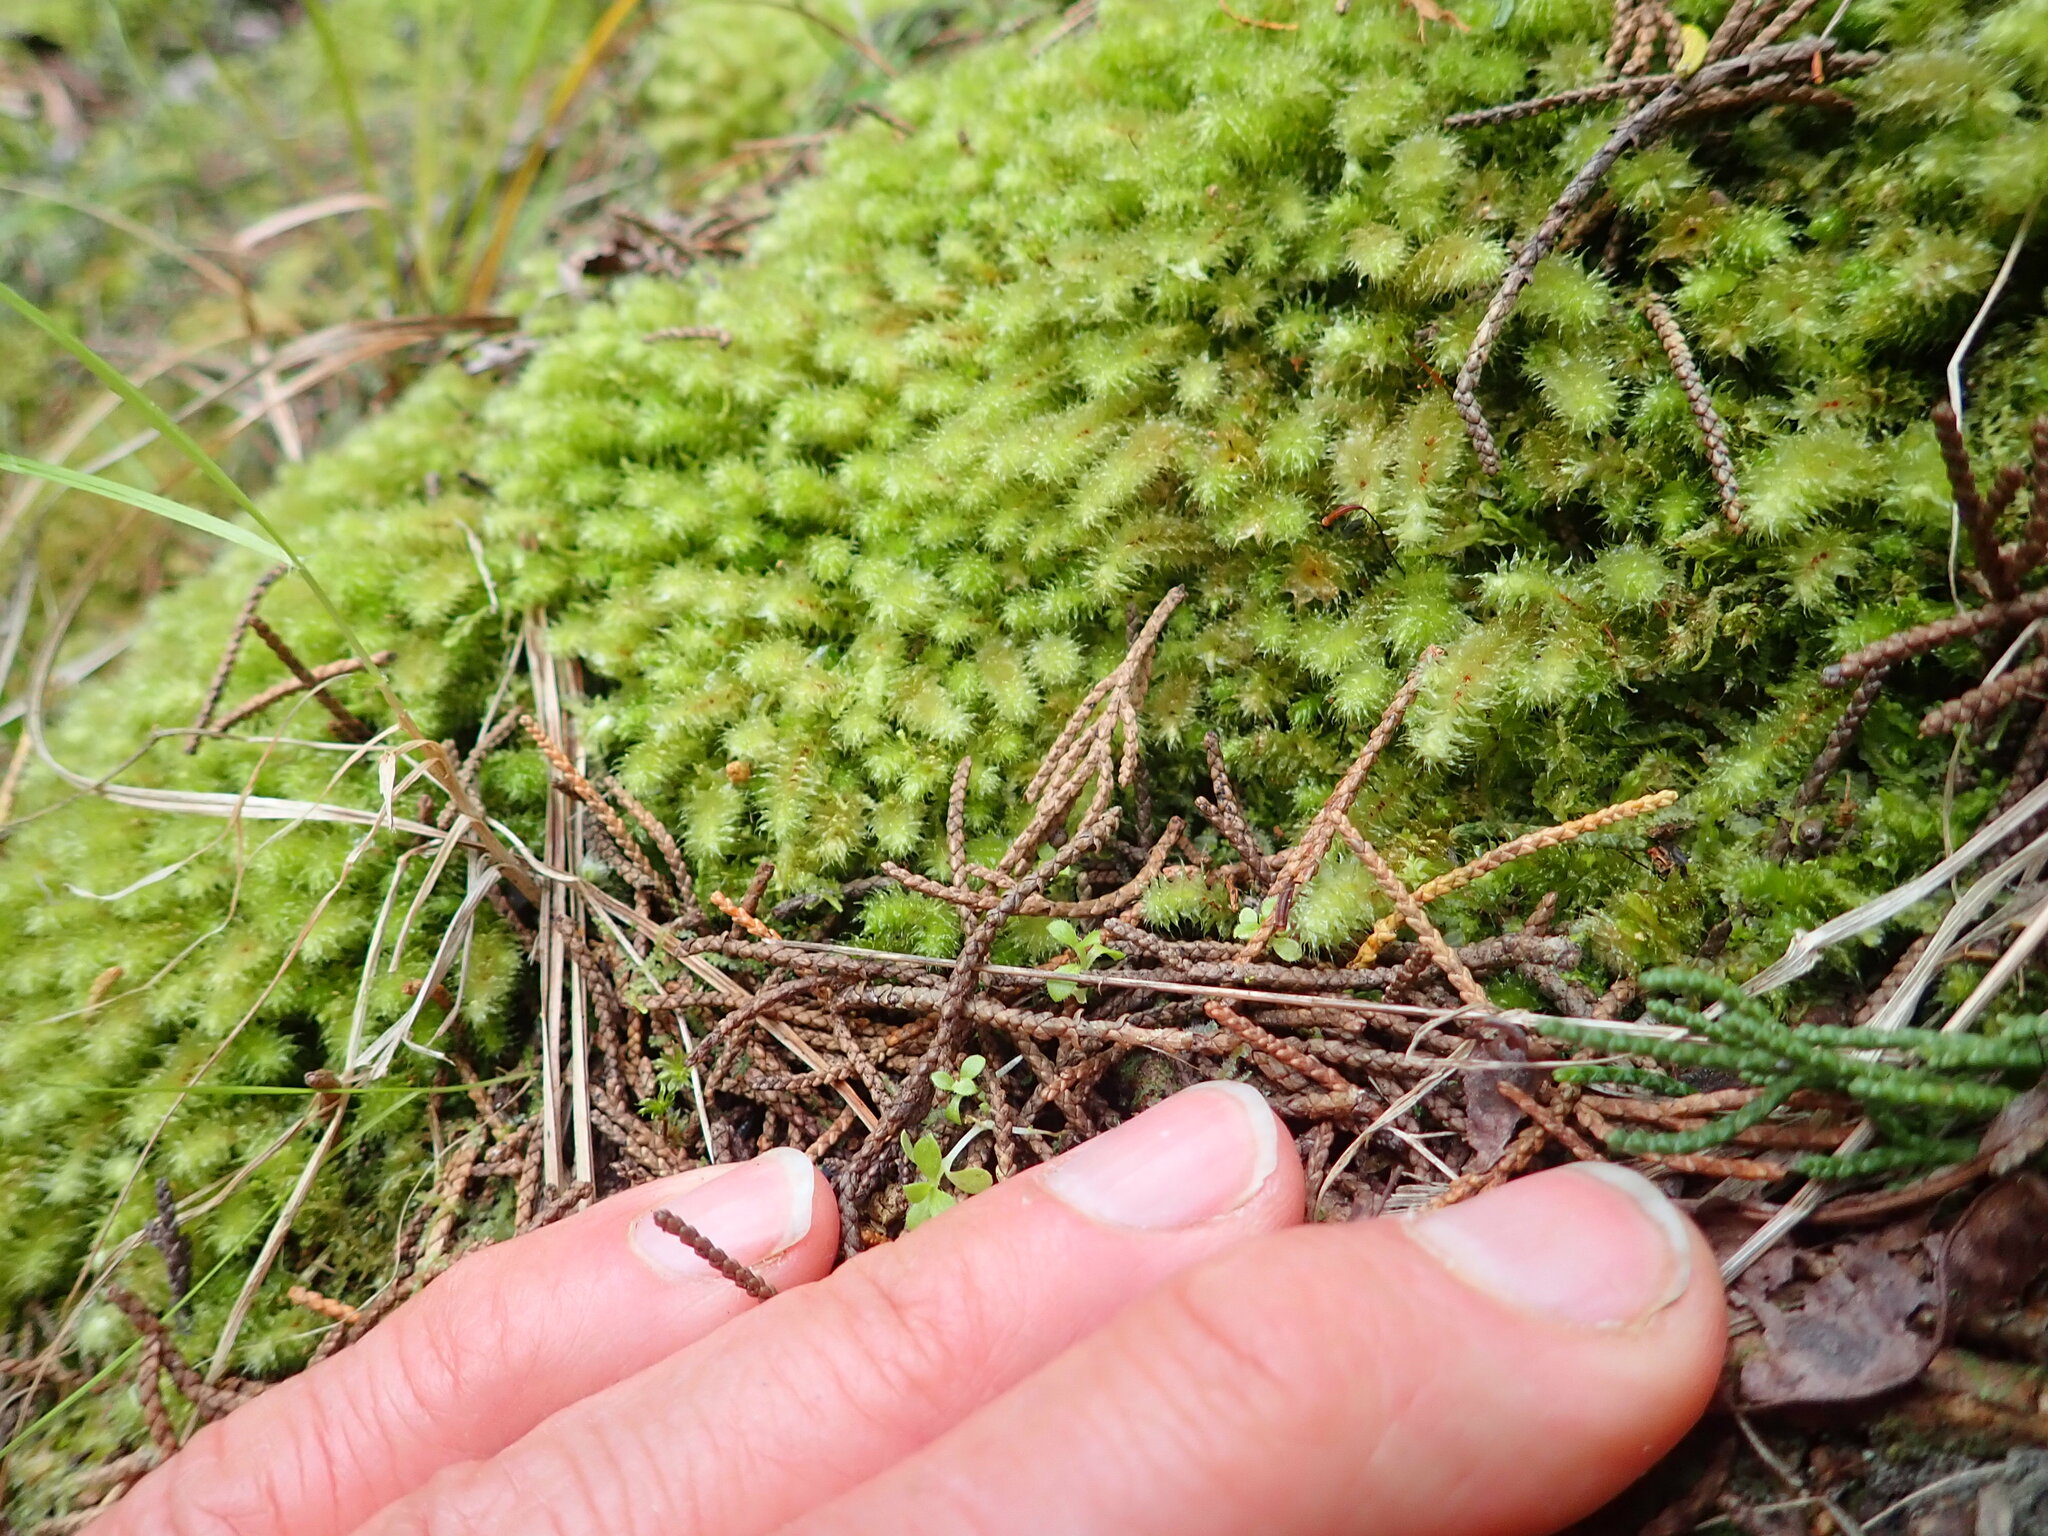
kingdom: Plantae
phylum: Bryophyta
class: Bryopsida
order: Ptychomniales
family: Ptychomniaceae
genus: Ptychomnion
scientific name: Ptychomnion aciculare
